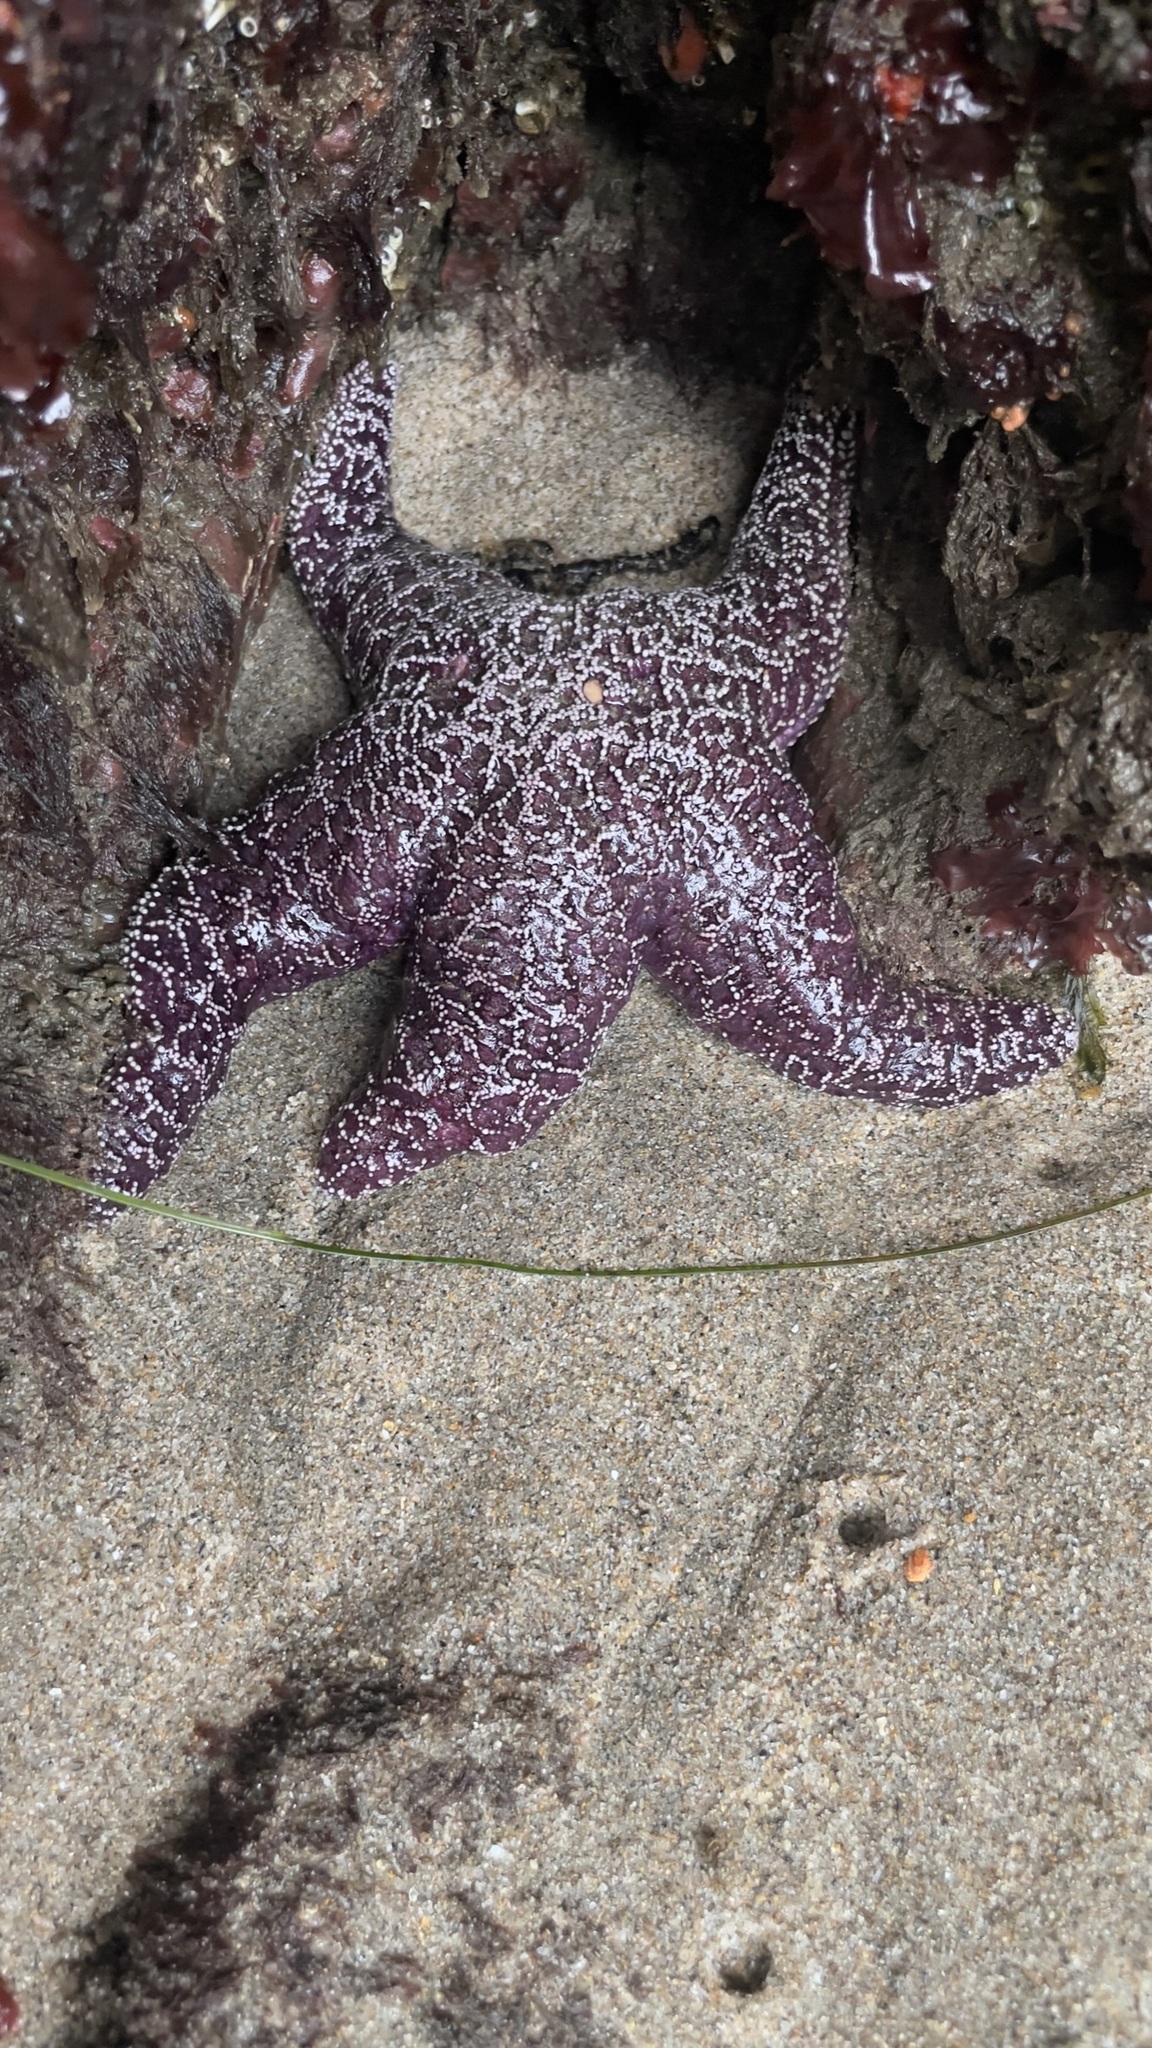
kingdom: Animalia
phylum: Echinodermata
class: Asteroidea
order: Forcipulatida
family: Asteriidae
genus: Pisaster
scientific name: Pisaster ochraceus
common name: Ochre stars
